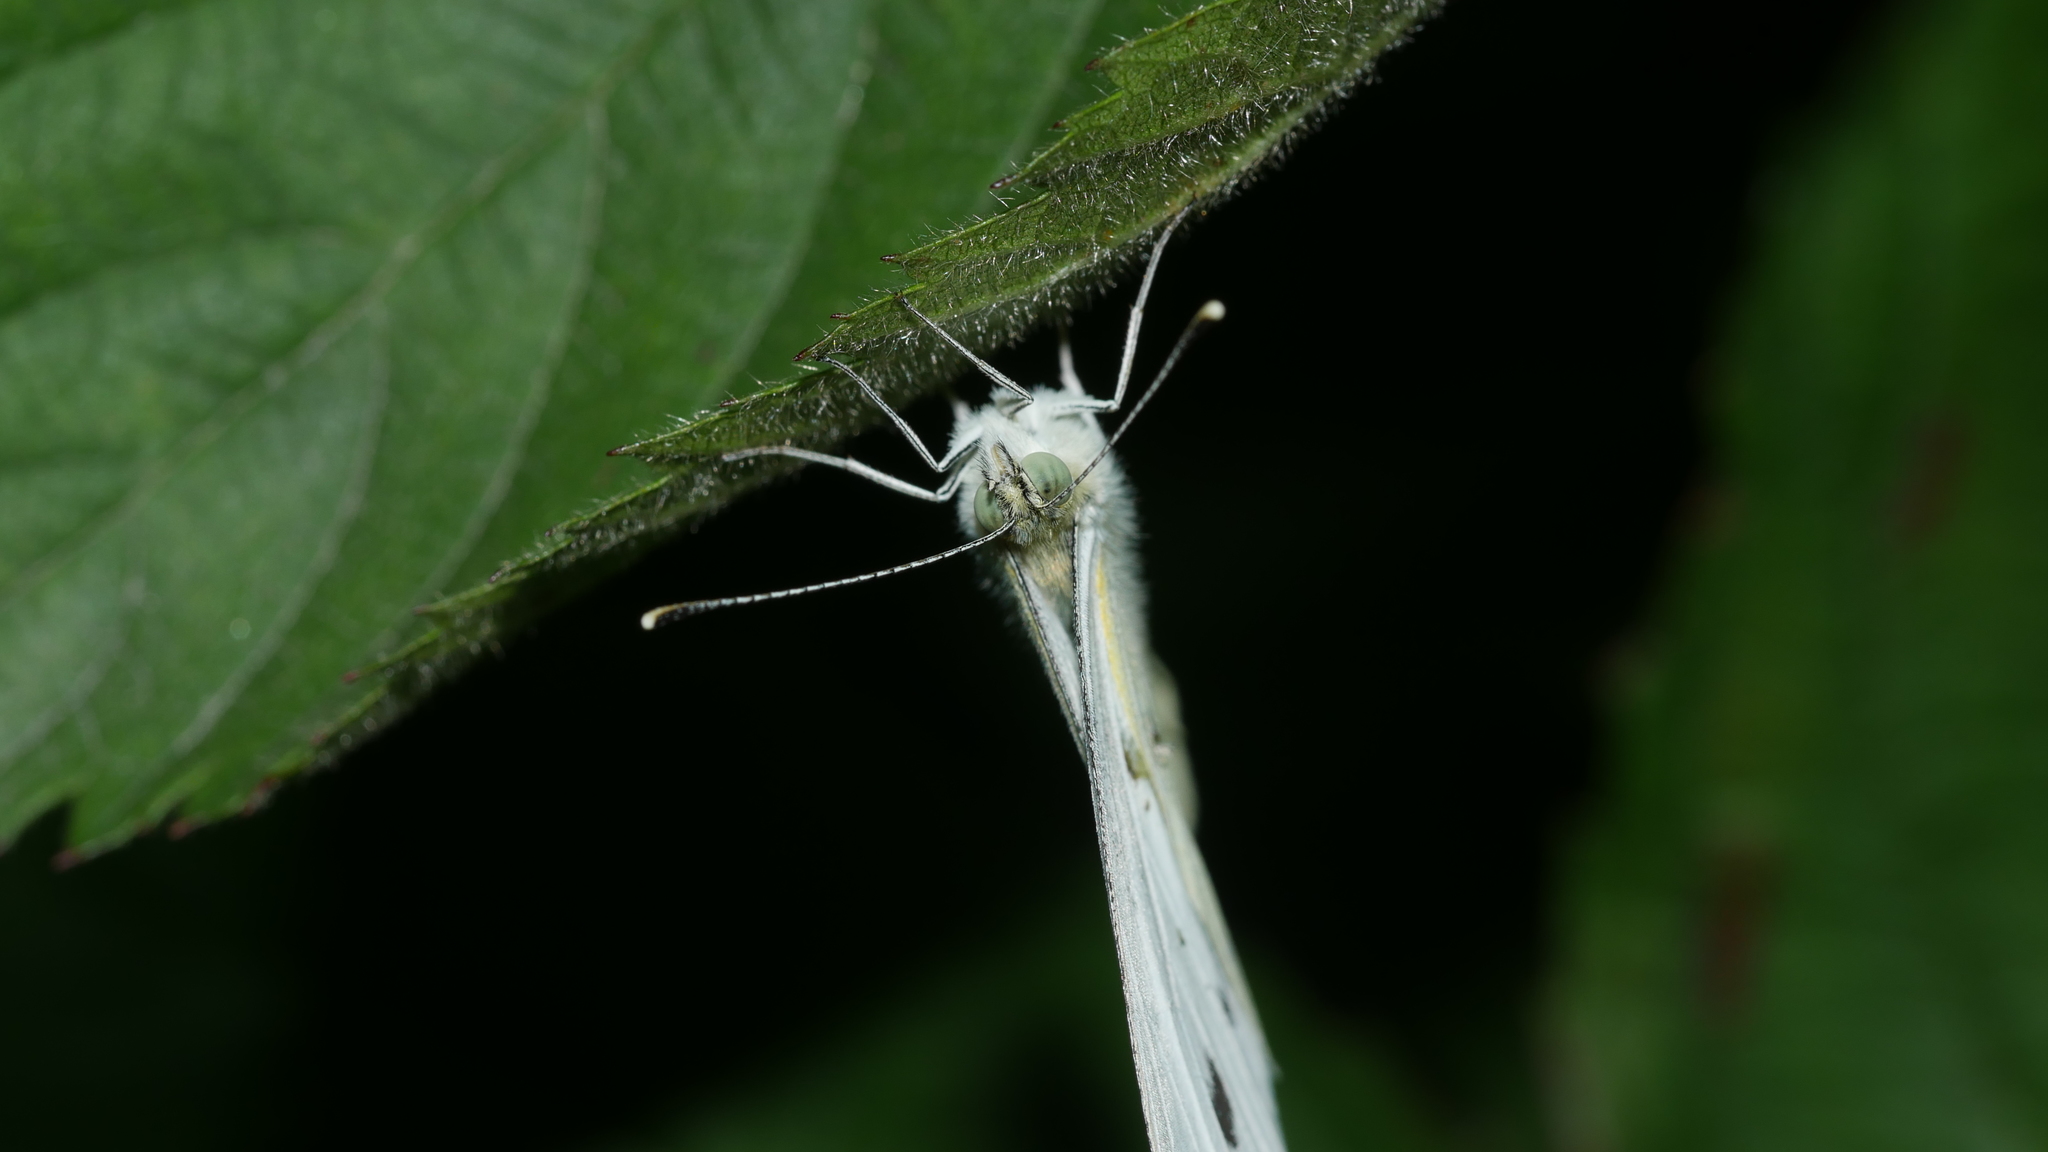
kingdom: Animalia
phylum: Arthropoda
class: Insecta
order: Lepidoptera
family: Pieridae
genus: Pieris
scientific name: Pieris rapae
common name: Small white
